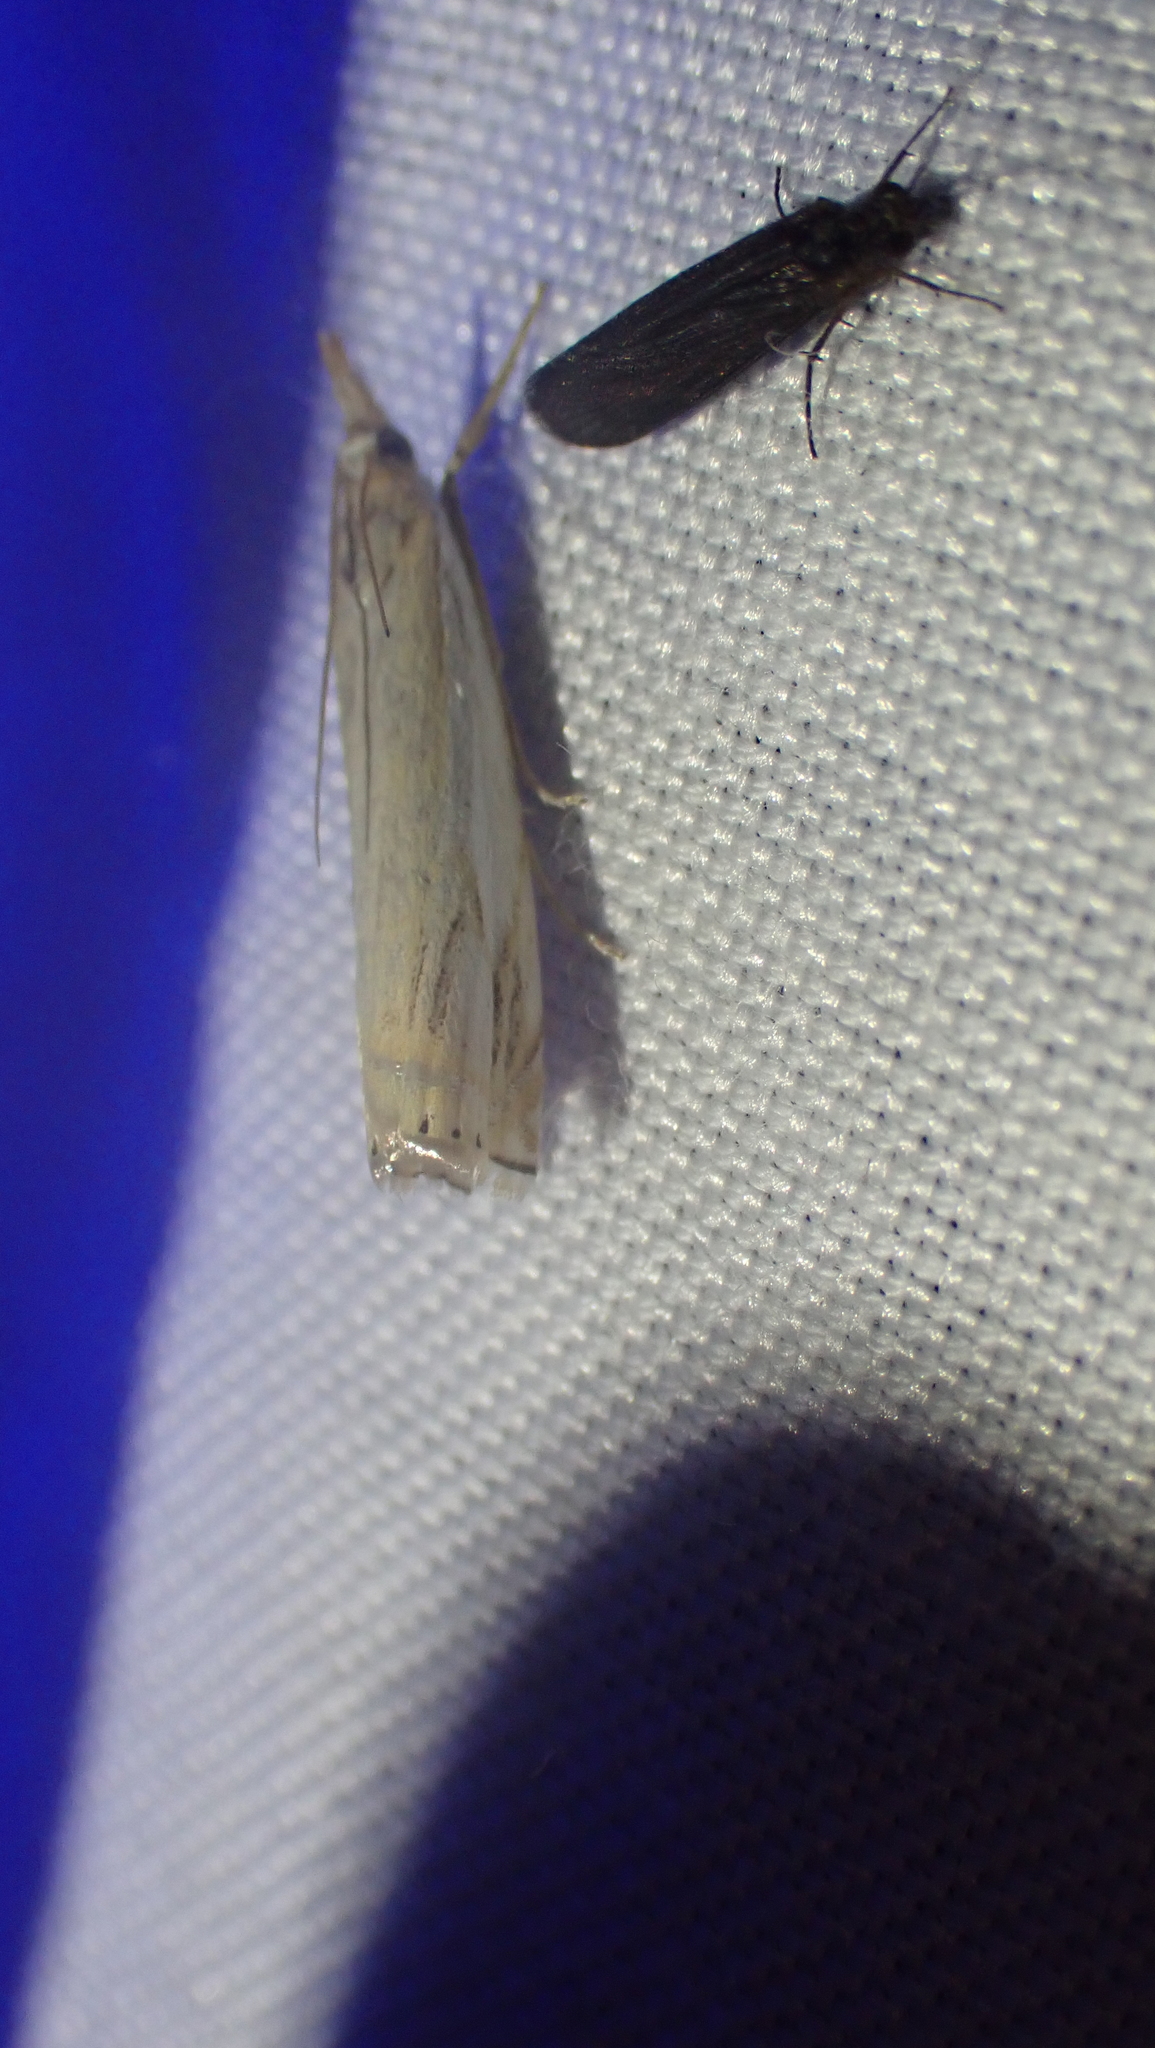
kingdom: Animalia
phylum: Arthropoda
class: Insecta
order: Lepidoptera
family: Crambidae
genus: Crambus
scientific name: Crambus agitatellus
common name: Double-banded grass-veneer
